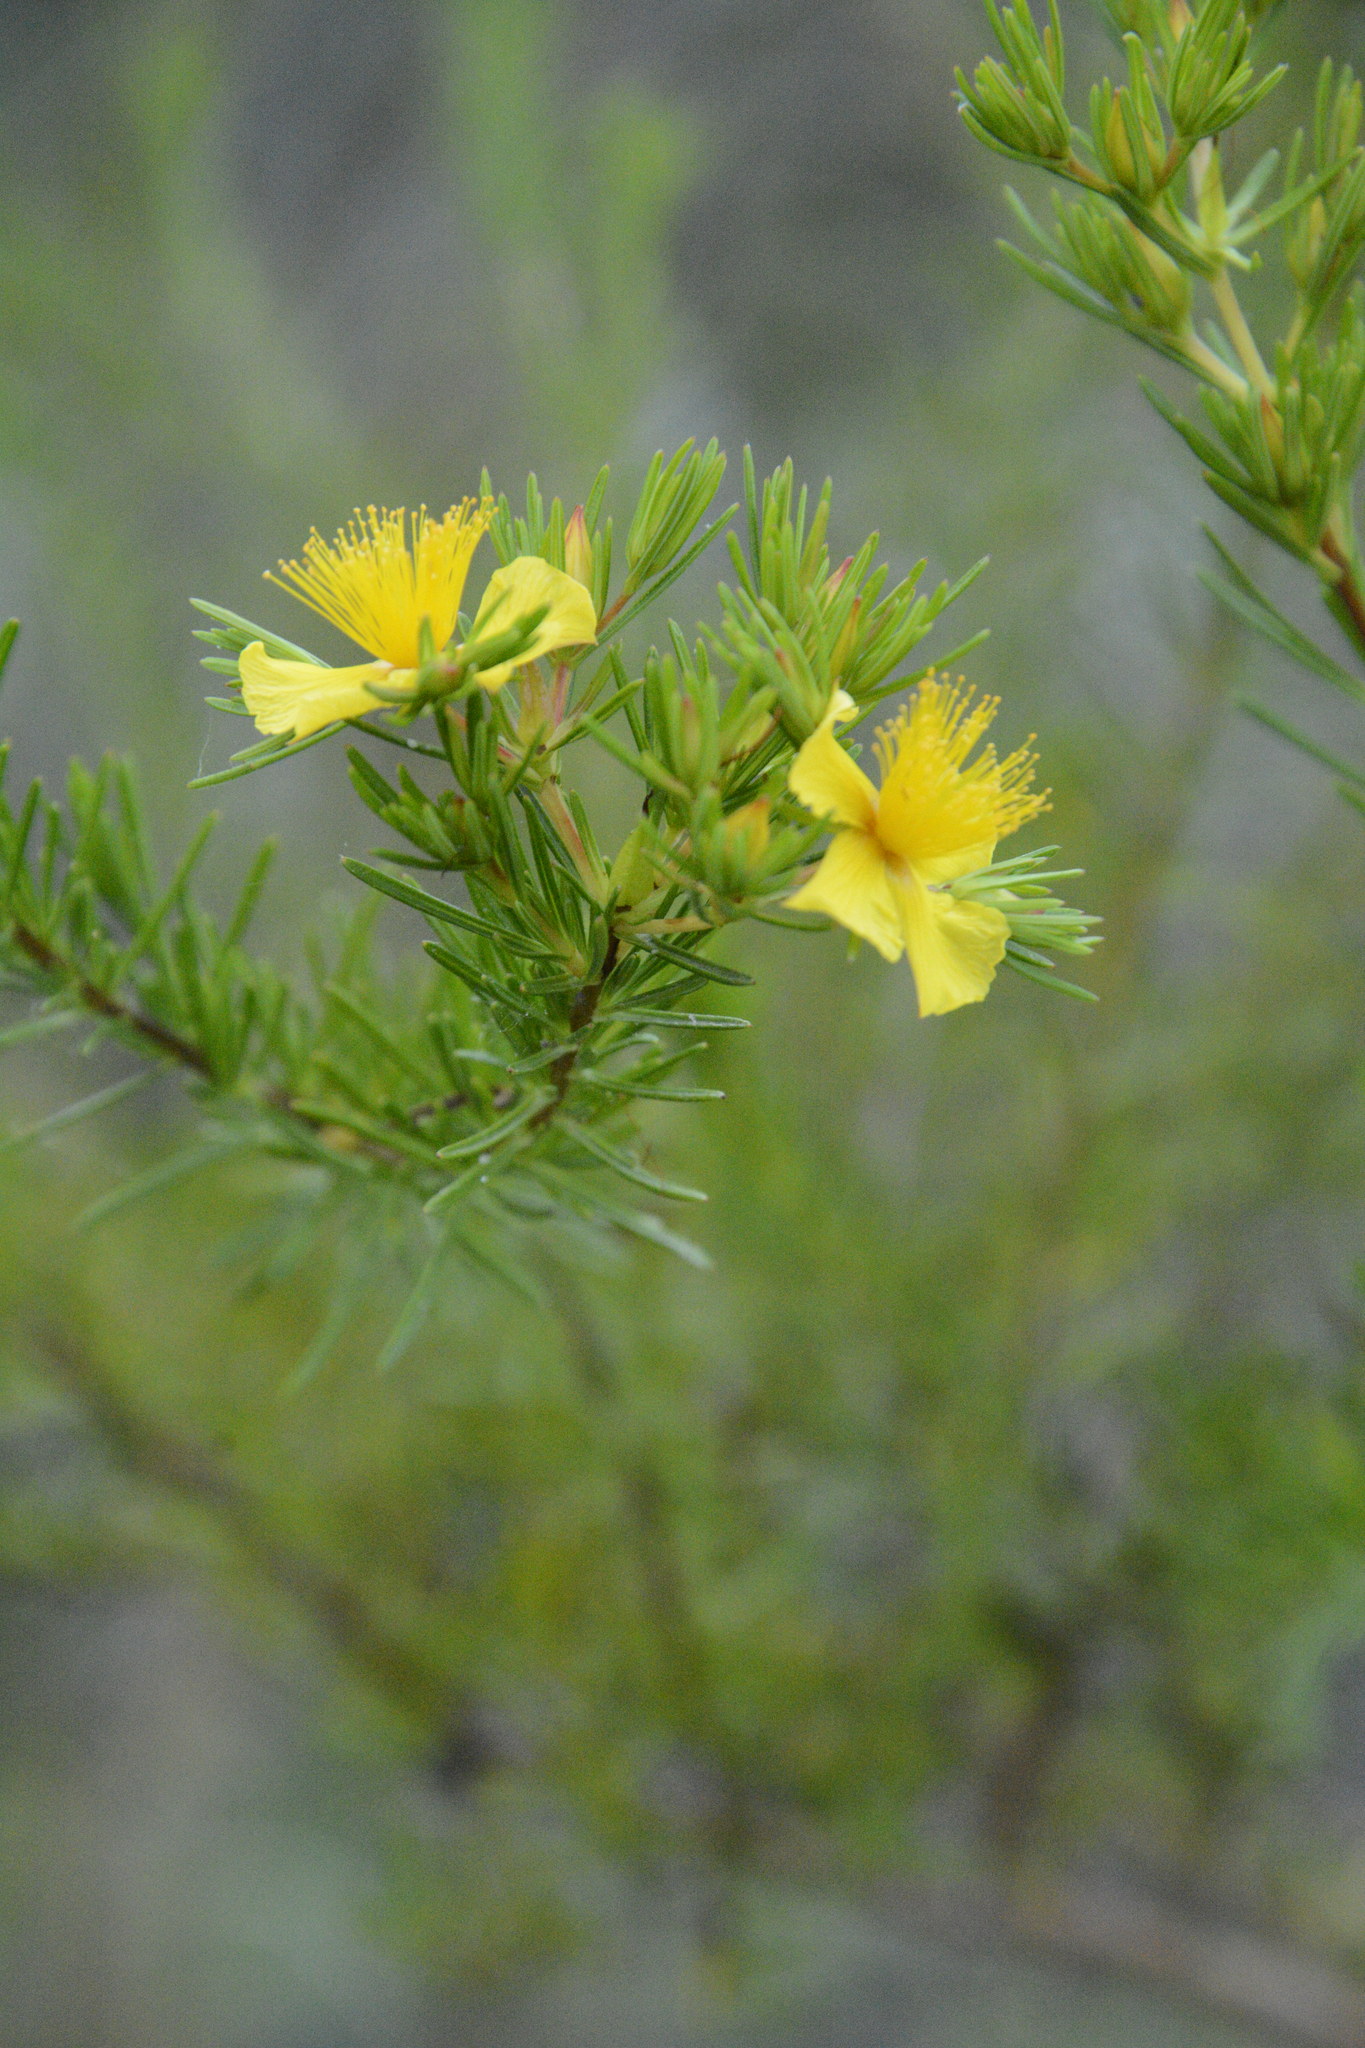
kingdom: Plantae
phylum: Tracheophyta
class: Magnoliopsida
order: Malpighiales
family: Hypericaceae
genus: Hypericum
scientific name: Hypericum fasciculatum
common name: Peelbark st. john's wort
